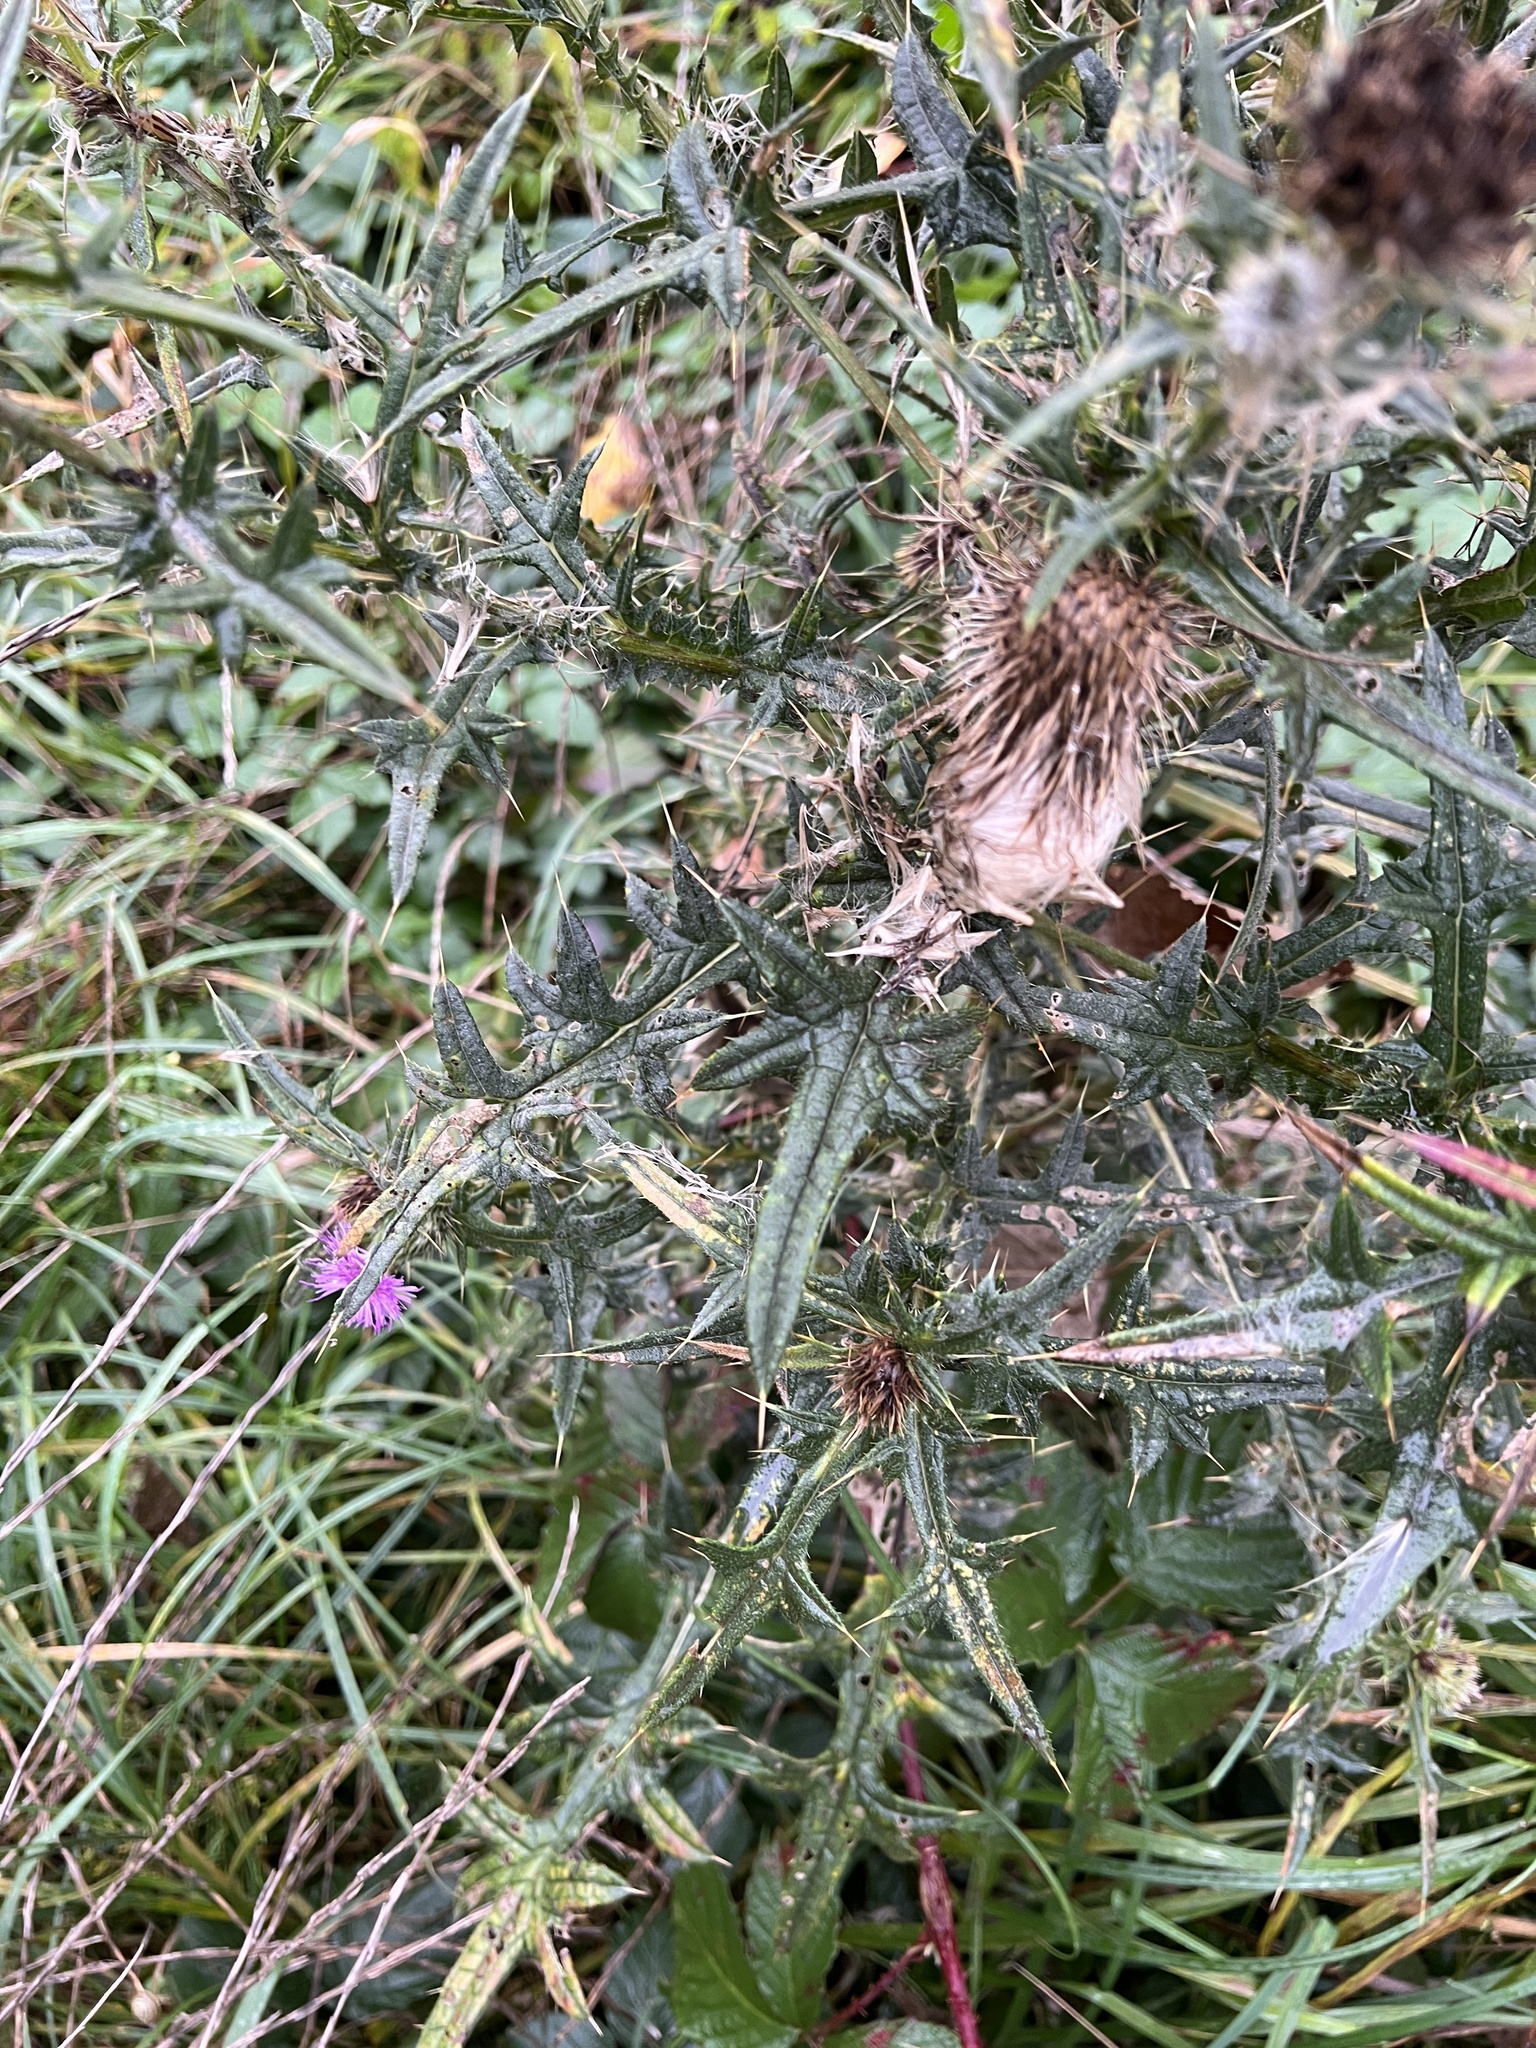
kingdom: Plantae
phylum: Tracheophyta
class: Magnoliopsida
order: Asterales
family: Asteraceae
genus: Cirsium
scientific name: Cirsium vulgare
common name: Bull thistle
